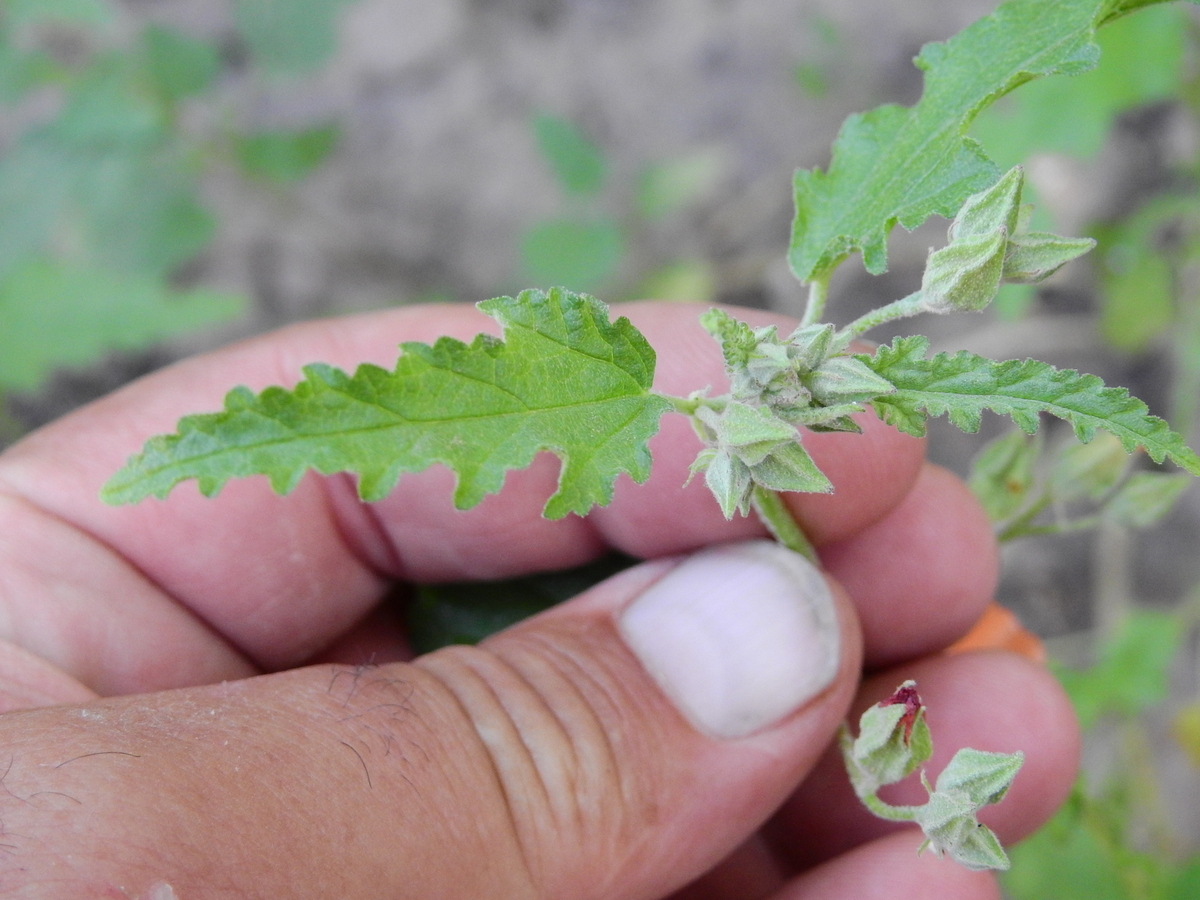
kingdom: Plantae
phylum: Tracheophyta
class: Magnoliopsida
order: Malvales
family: Malvaceae
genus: Sphaeralcea
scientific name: Sphaeralcea miniata
